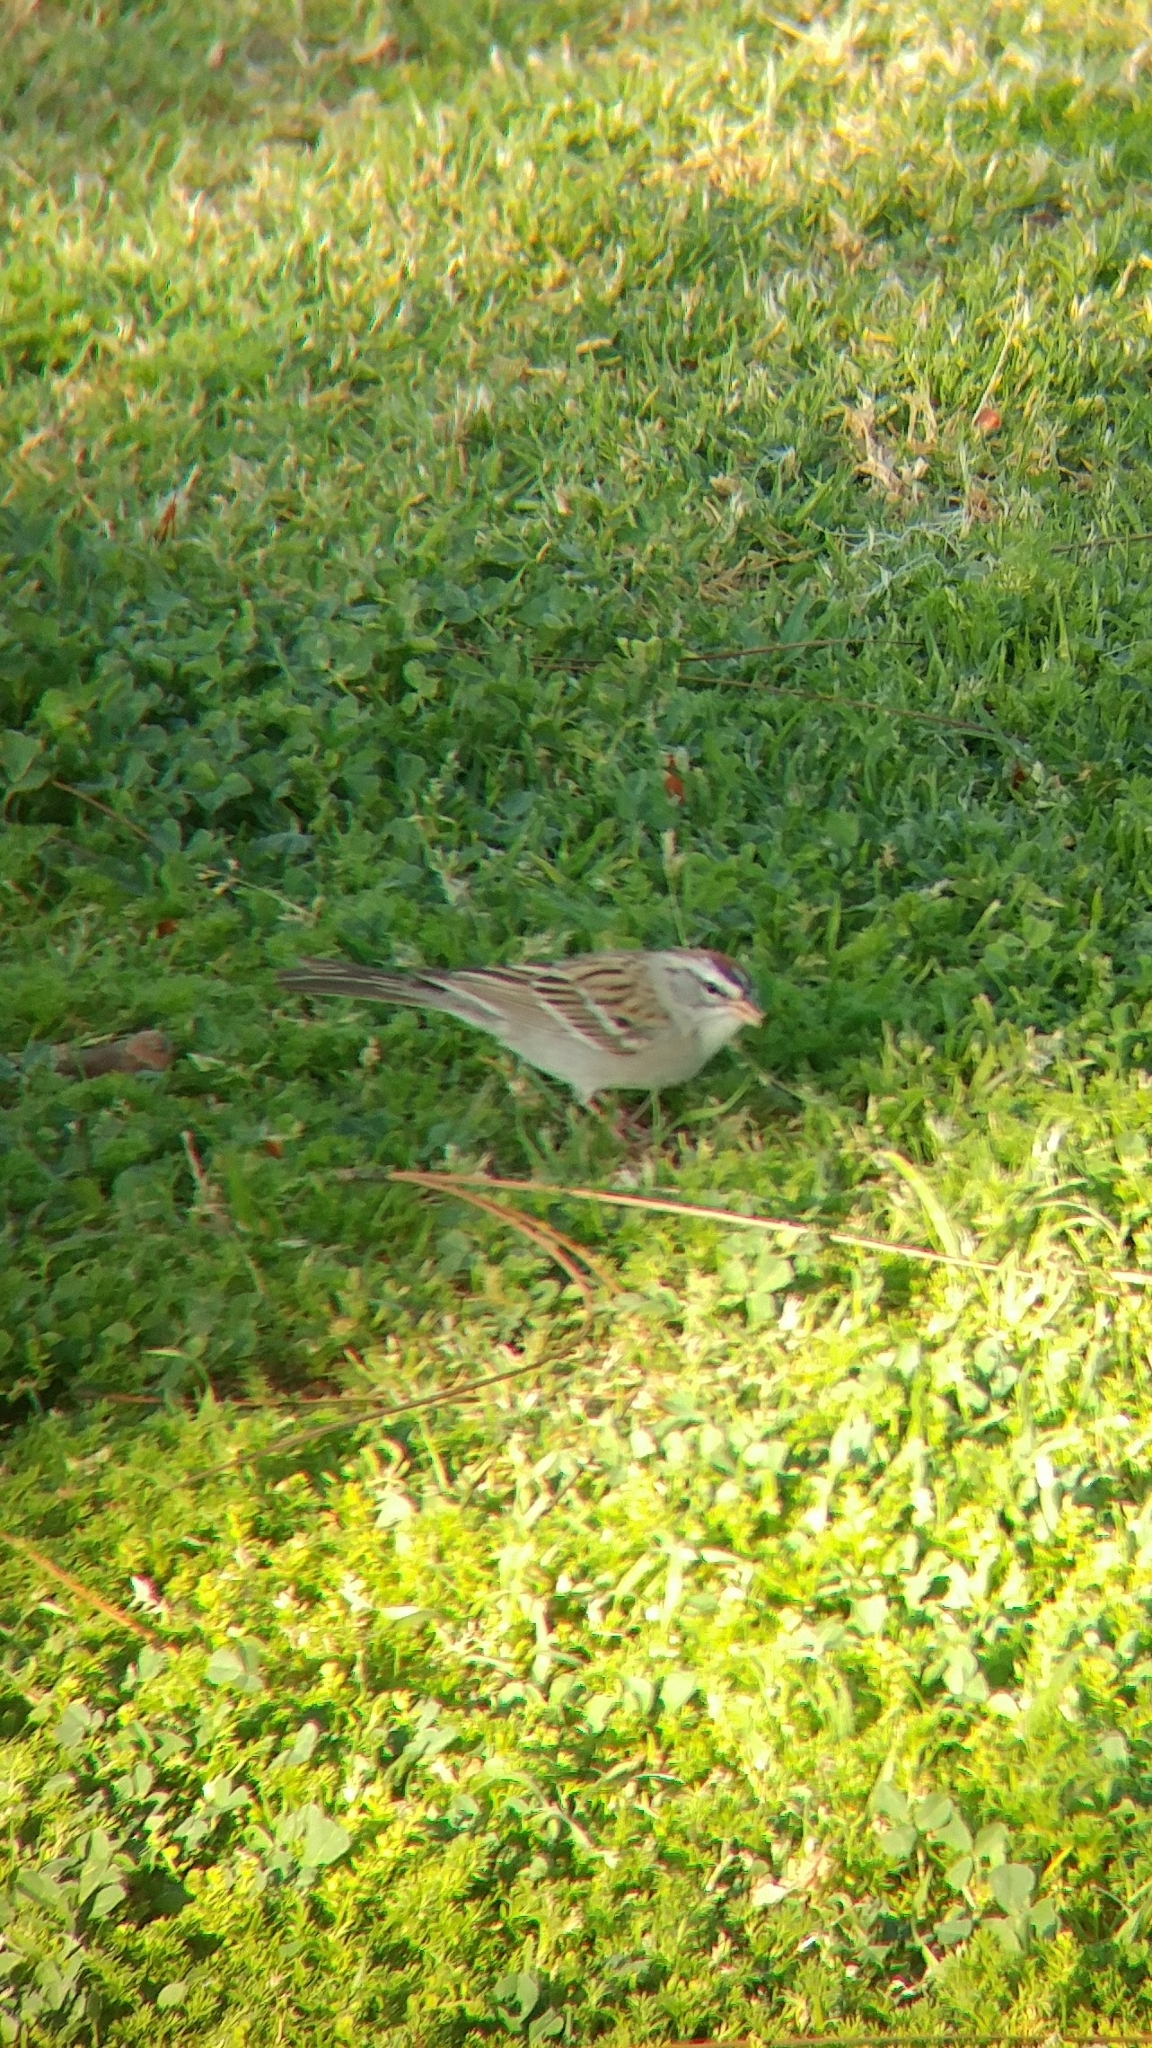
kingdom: Animalia
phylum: Chordata
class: Aves
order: Passeriformes
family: Passerellidae
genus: Spizella
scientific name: Spizella passerina
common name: Chipping sparrow
